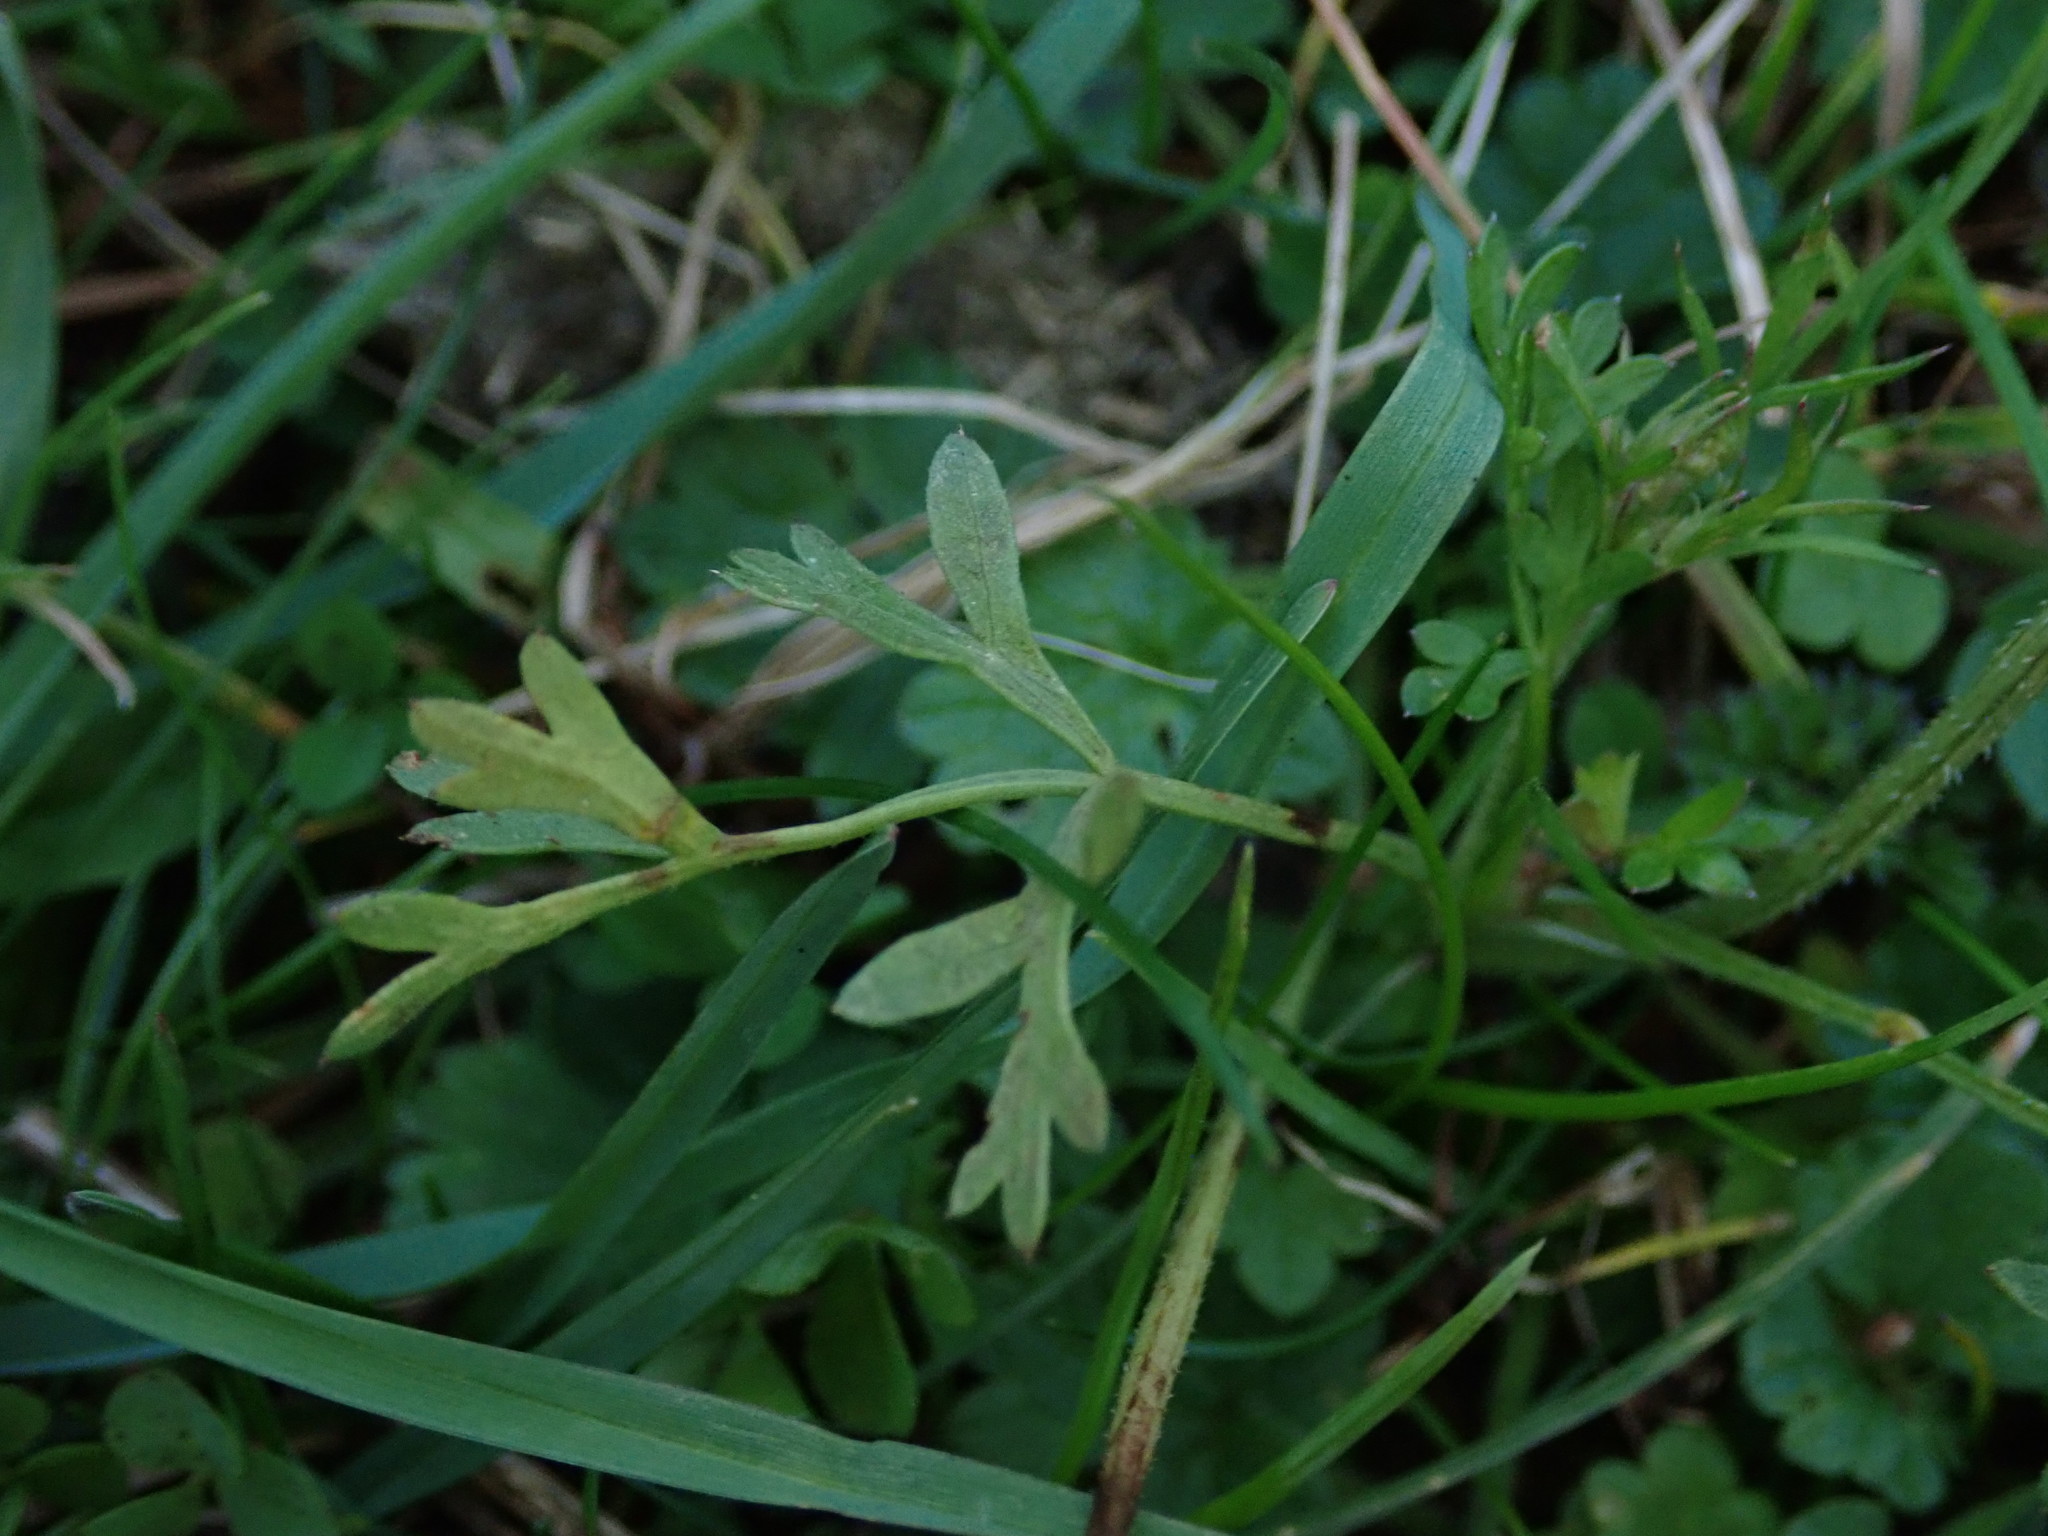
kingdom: Plantae
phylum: Tracheophyta
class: Magnoliopsida
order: Apiales
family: Apiaceae
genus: Pimpinella
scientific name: Pimpinella saxifraga
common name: Burnet-saxifrage
